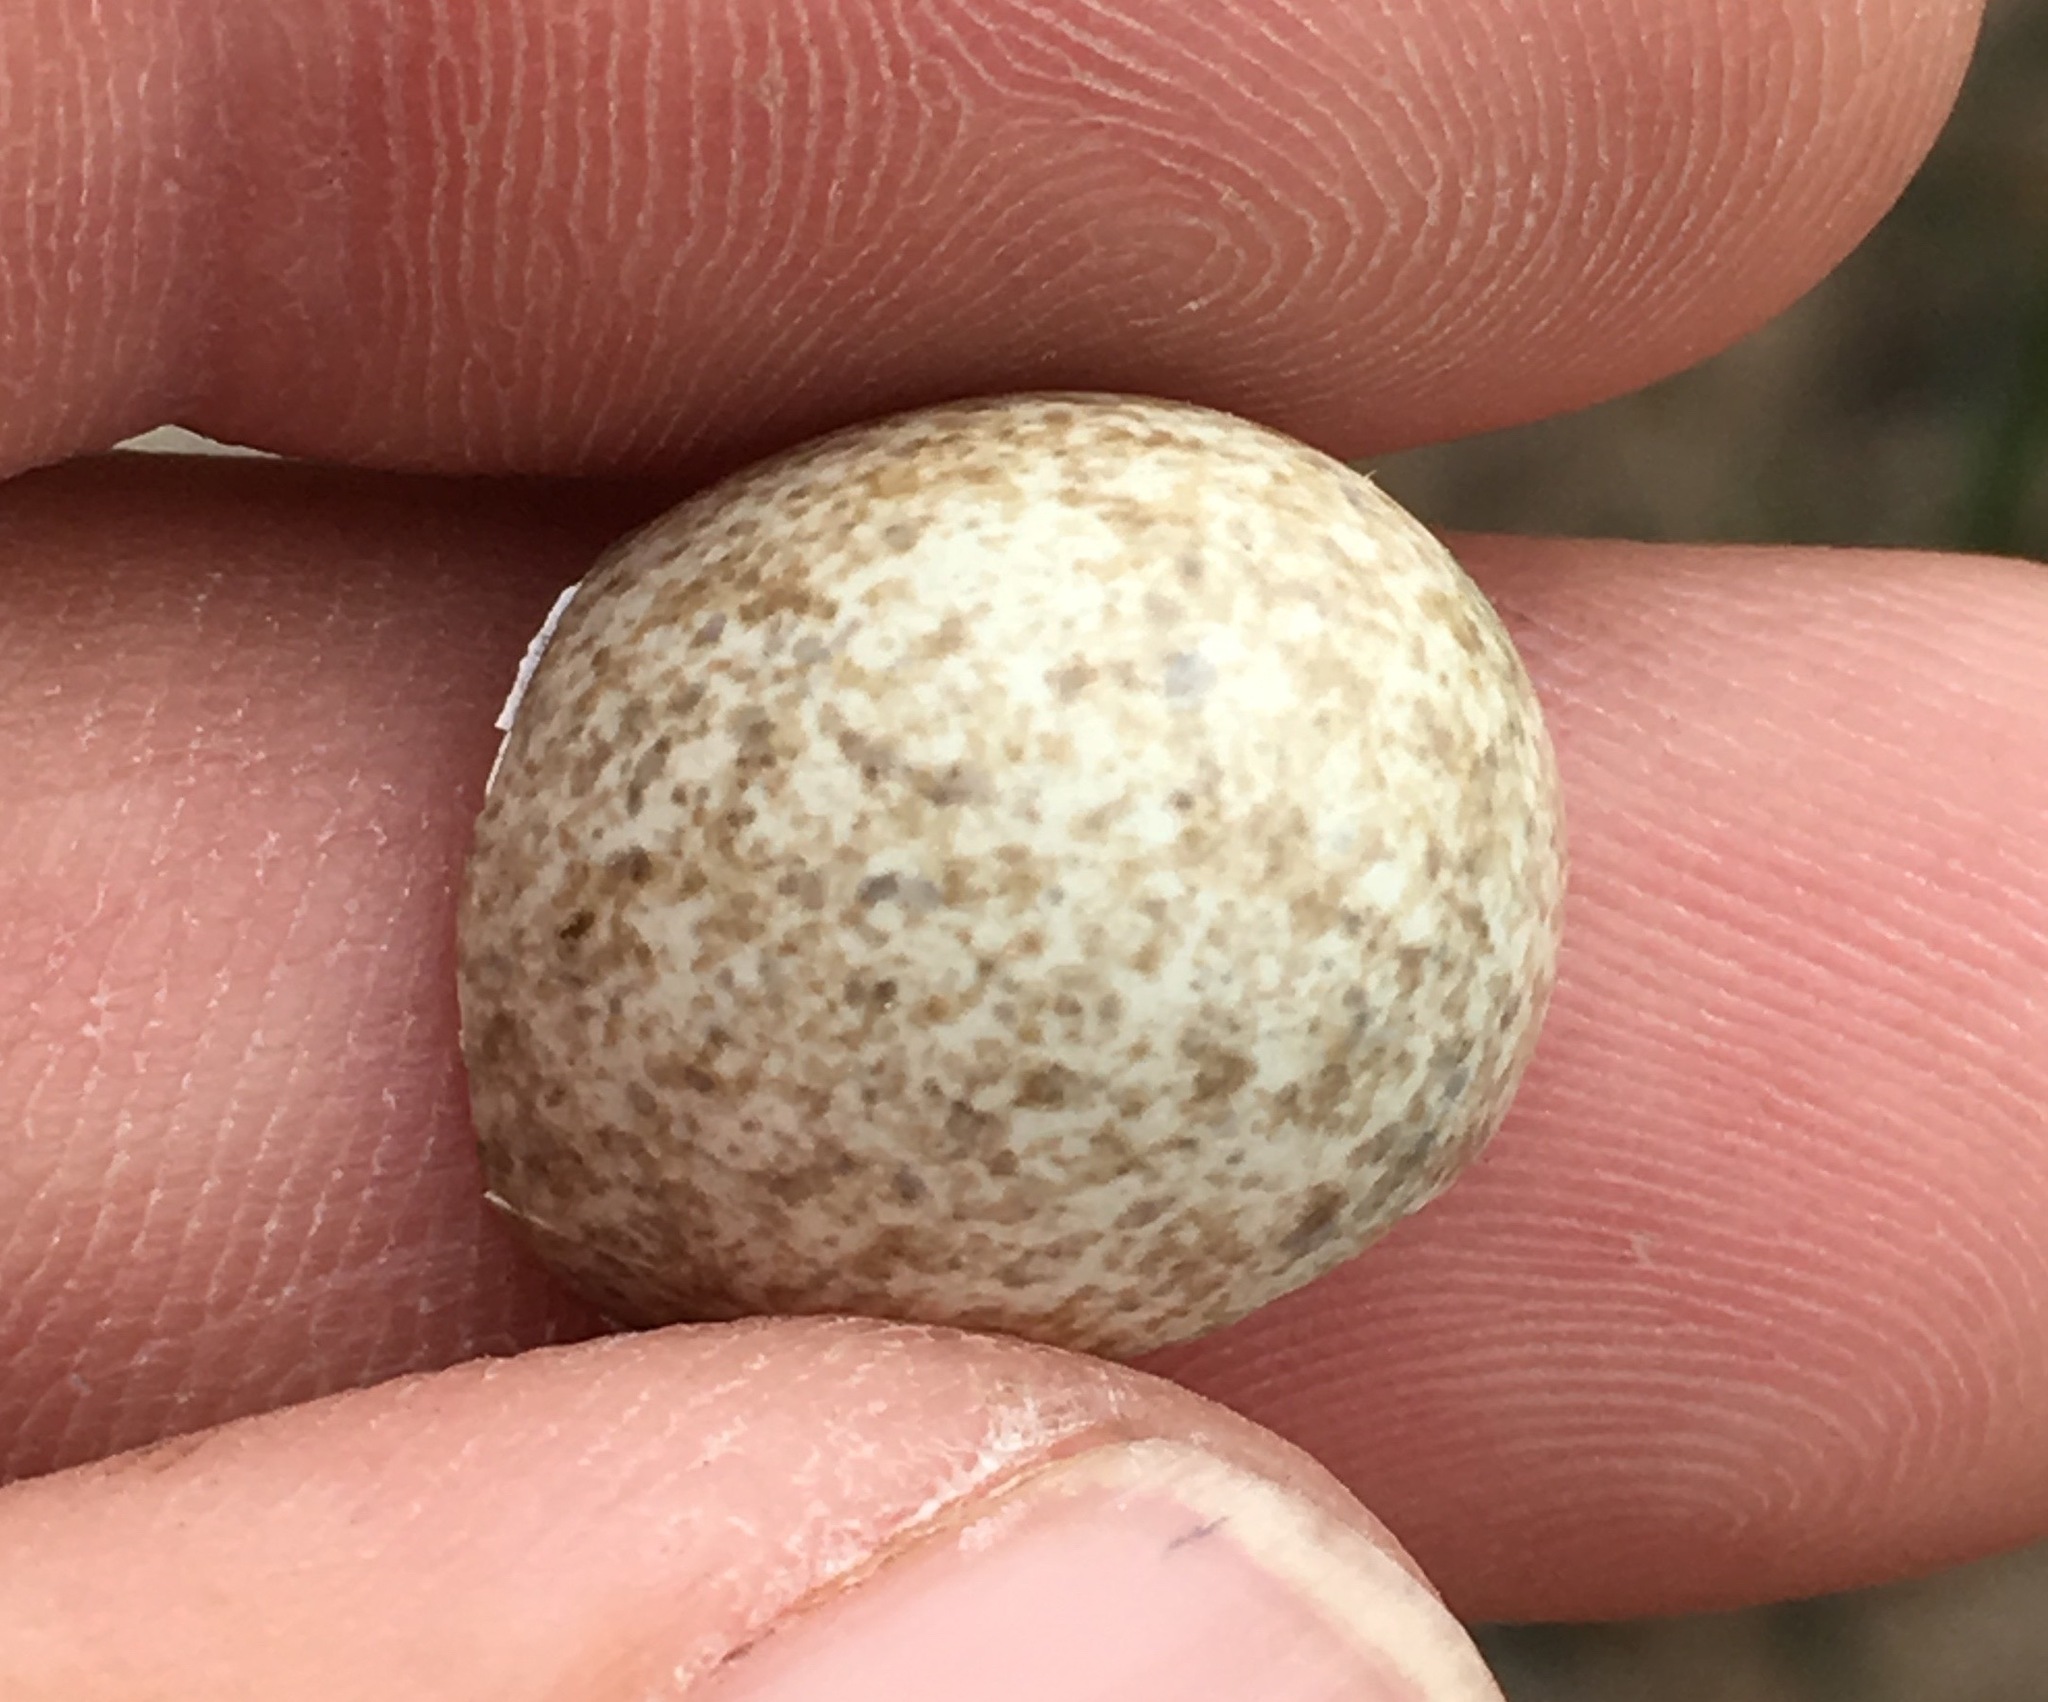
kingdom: Animalia
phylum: Chordata
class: Aves
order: Passeriformes
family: Alaudidae
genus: Eremophila
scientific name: Eremophila alpestris
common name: Horned lark
